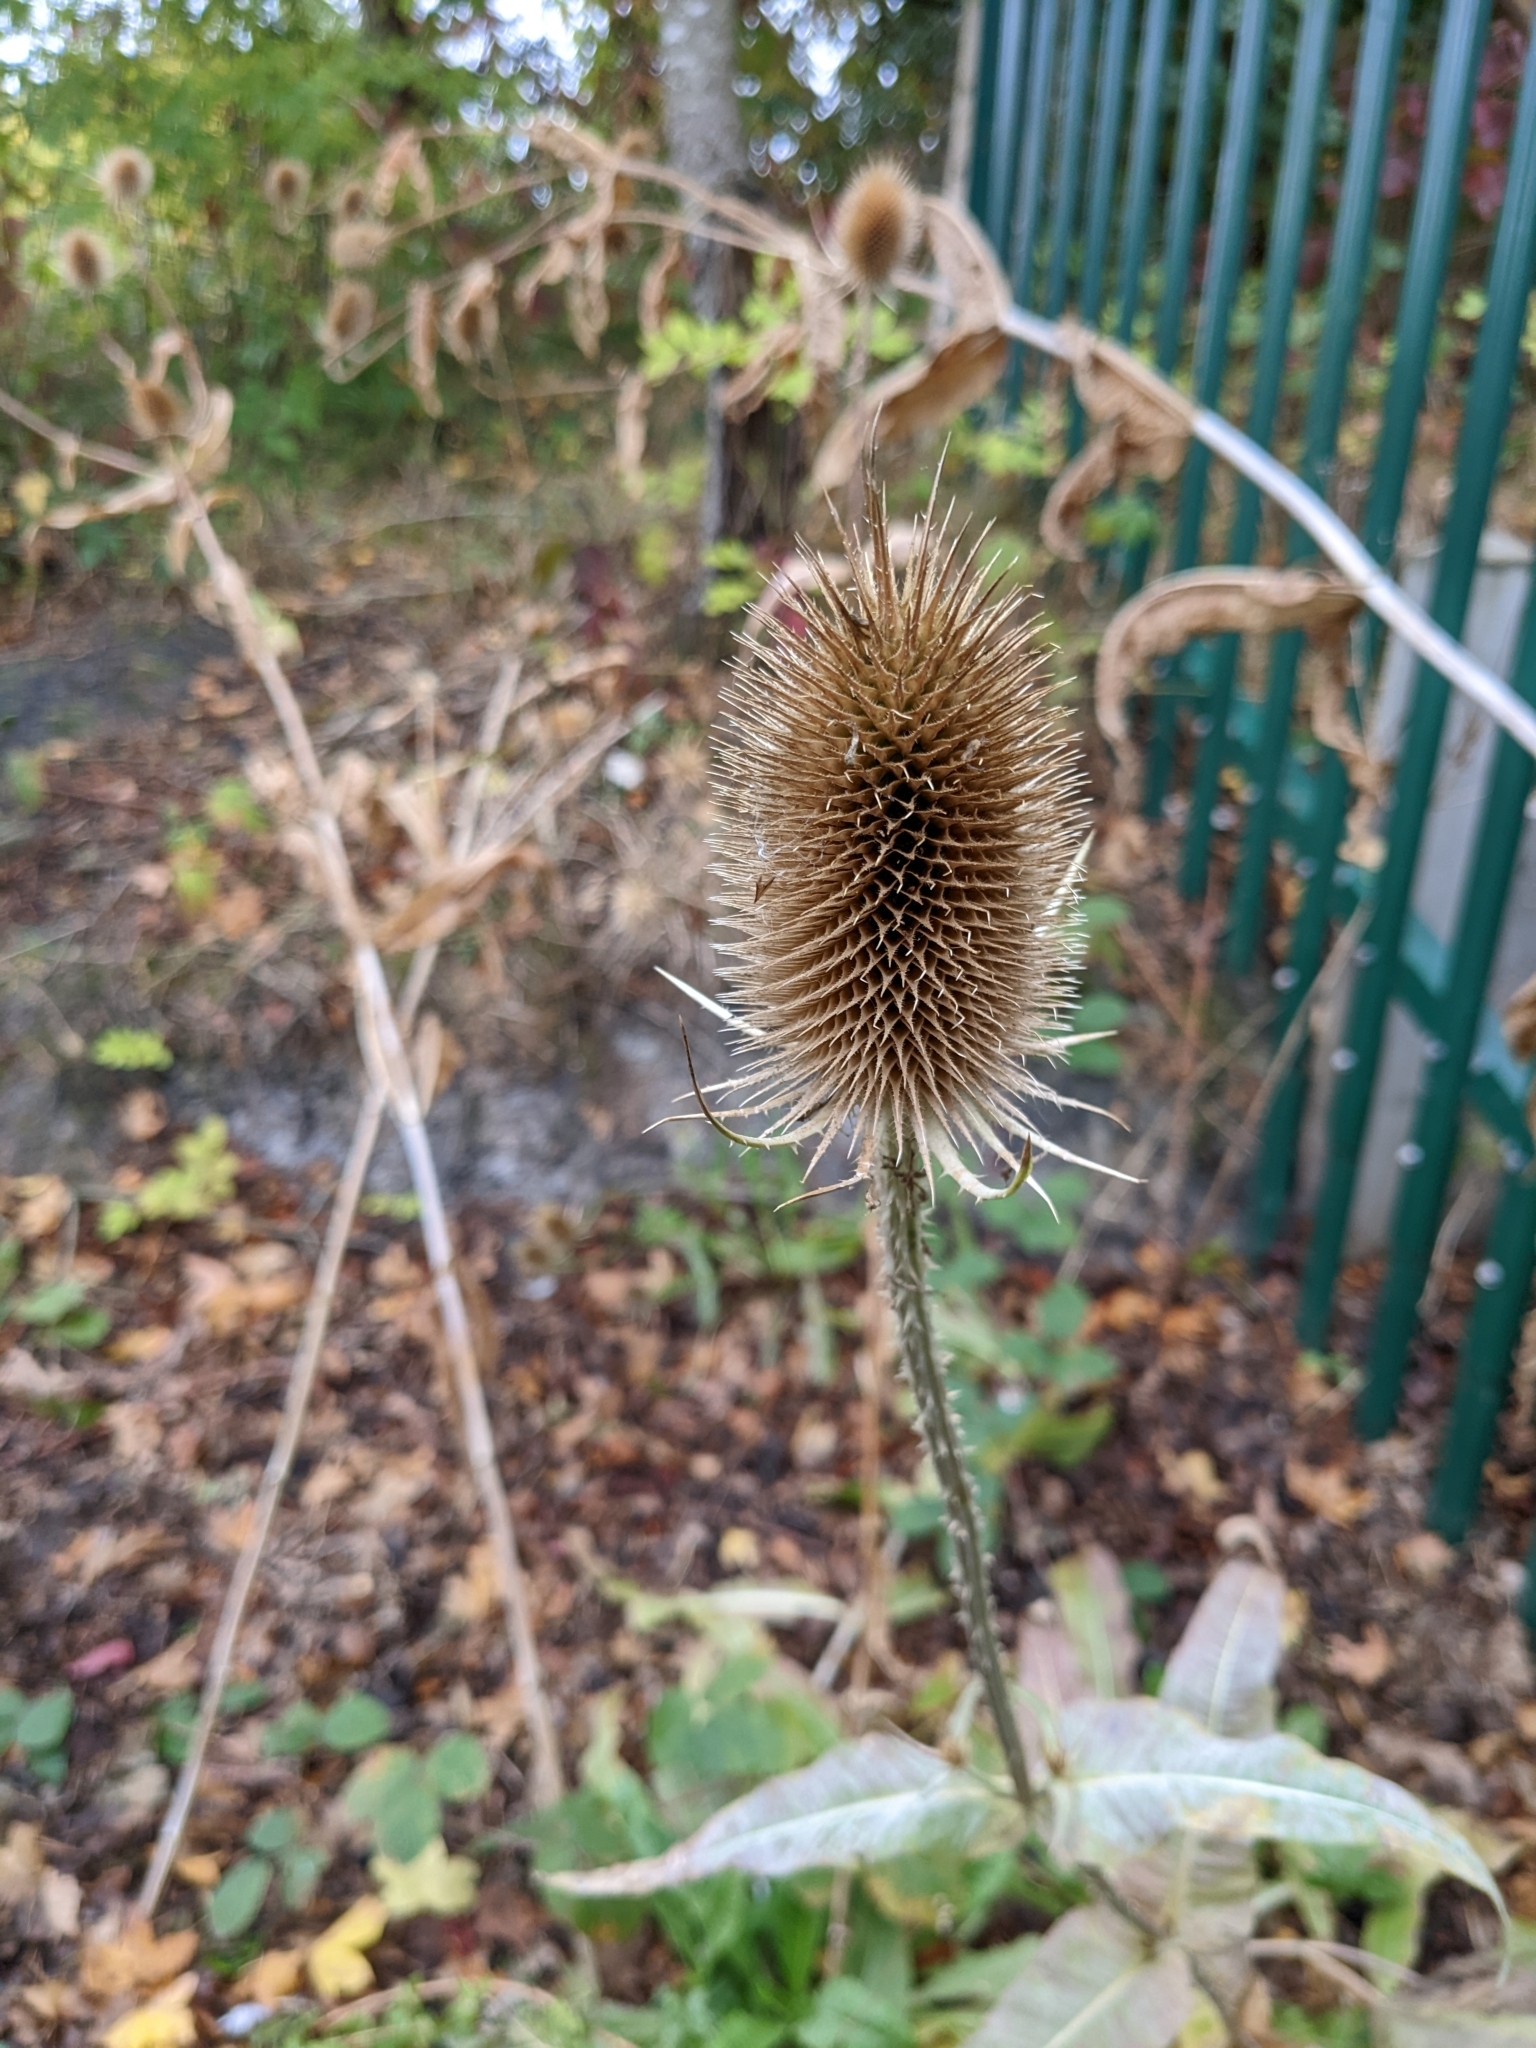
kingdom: Plantae
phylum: Tracheophyta
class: Magnoliopsida
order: Dipsacales
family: Caprifoliaceae
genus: Dipsacus
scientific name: Dipsacus fullonum
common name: Teasel
